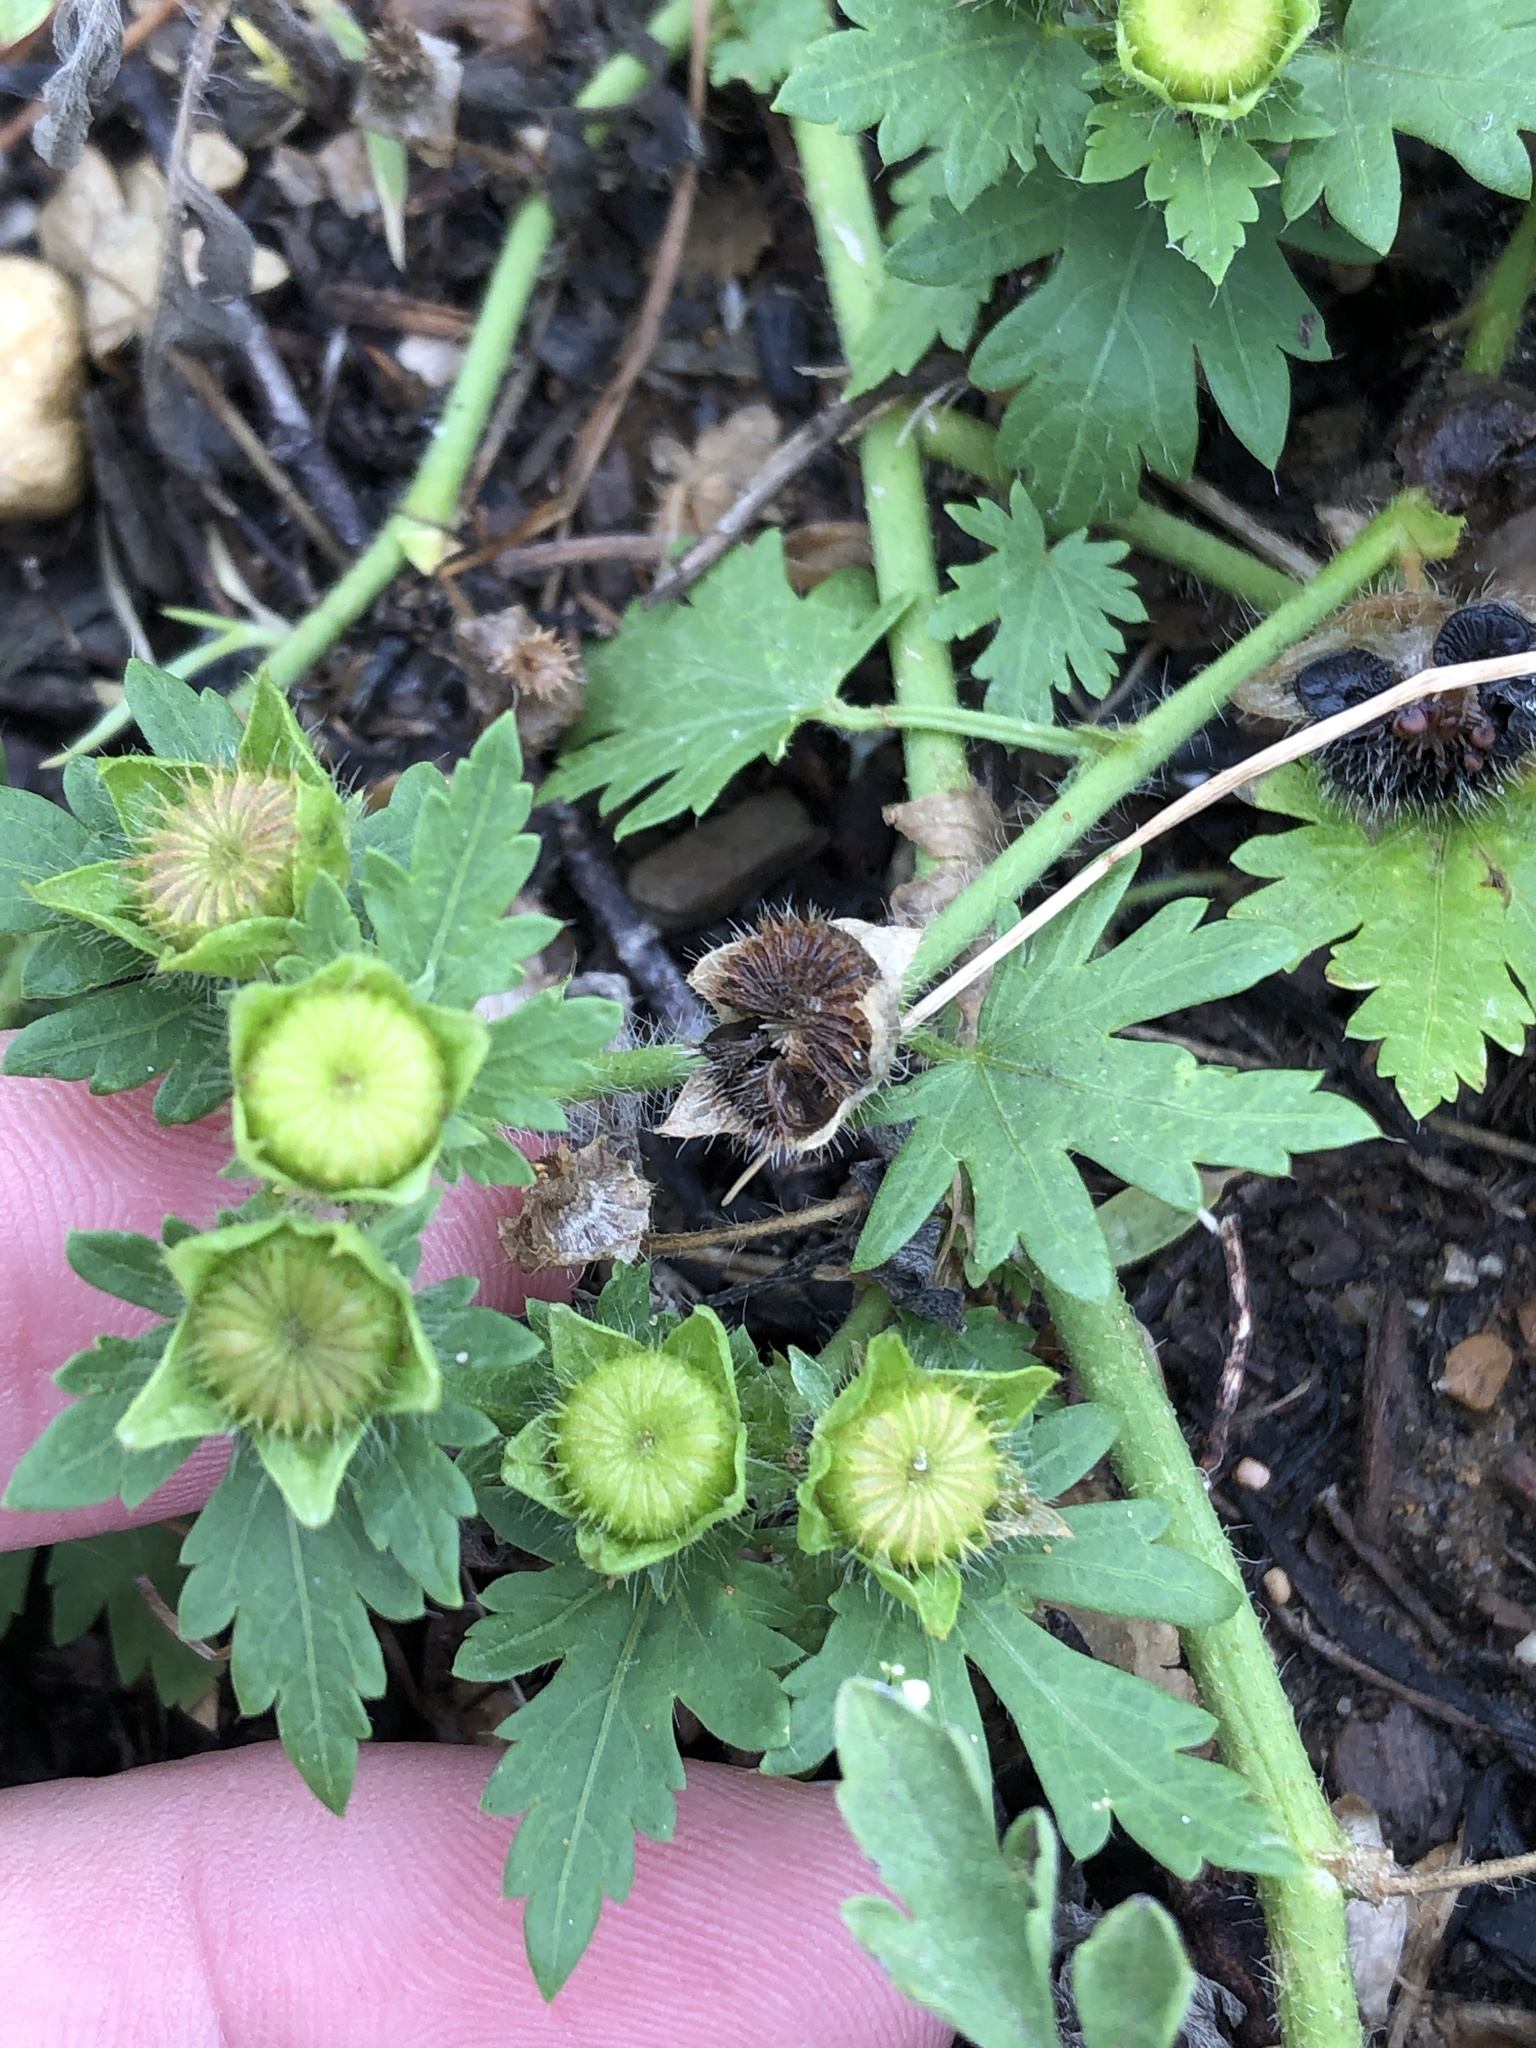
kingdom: Plantae
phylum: Tracheophyta
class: Magnoliopsida
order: Malvales
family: Malvaceae
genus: Modiola
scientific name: Modiola caroliniana
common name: Carolina bristlemallow
